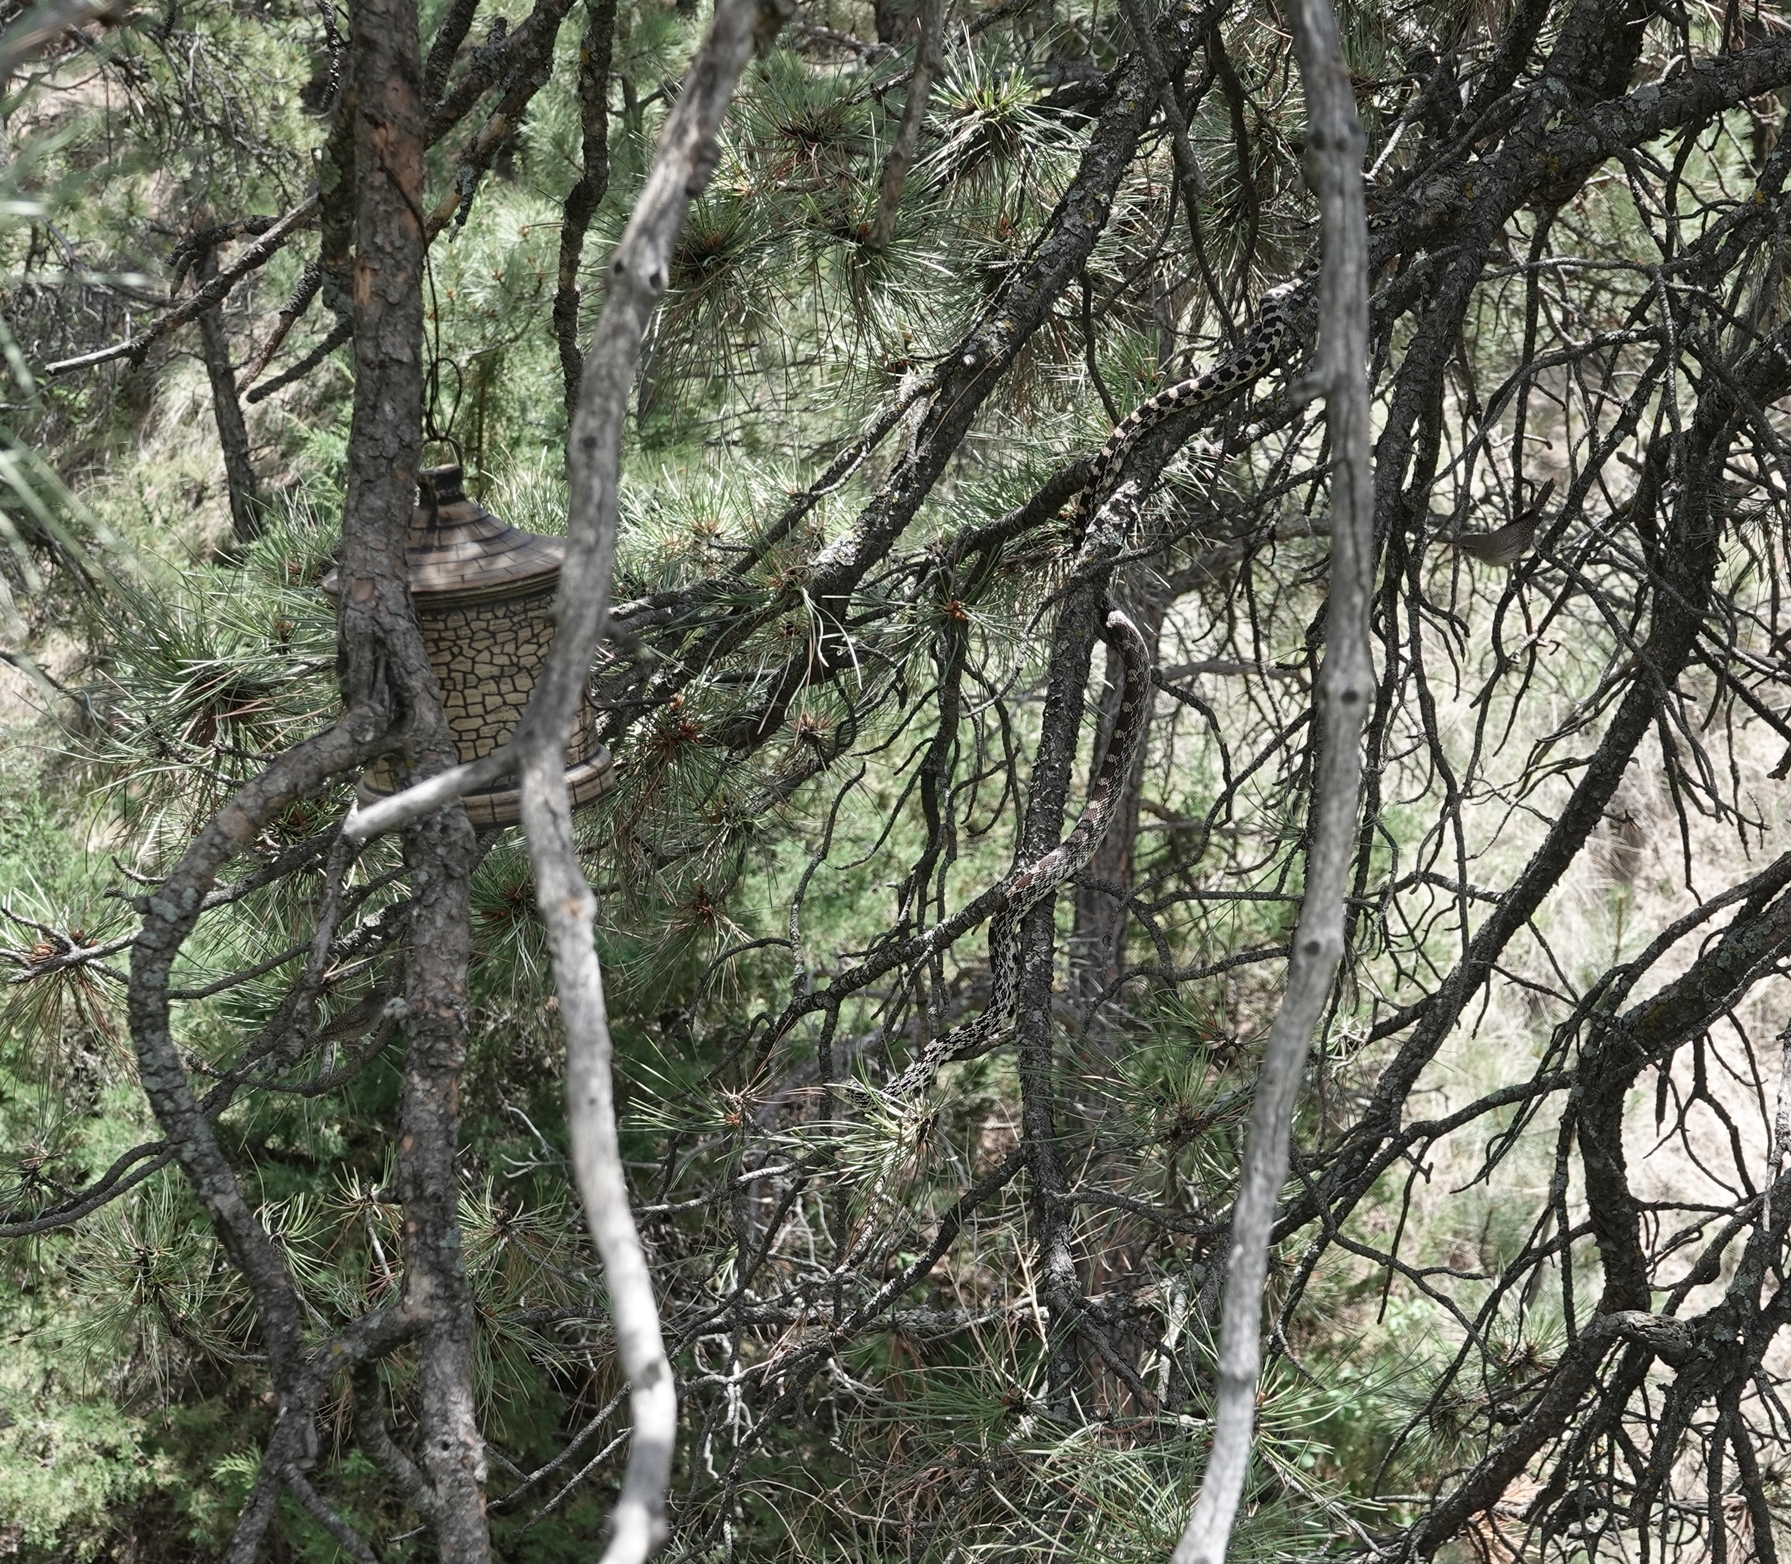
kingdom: Animalia
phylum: Chordata
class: Squamata
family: Colubridae
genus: Pituophis
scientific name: Pituophis catenifer
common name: Gopher snake
